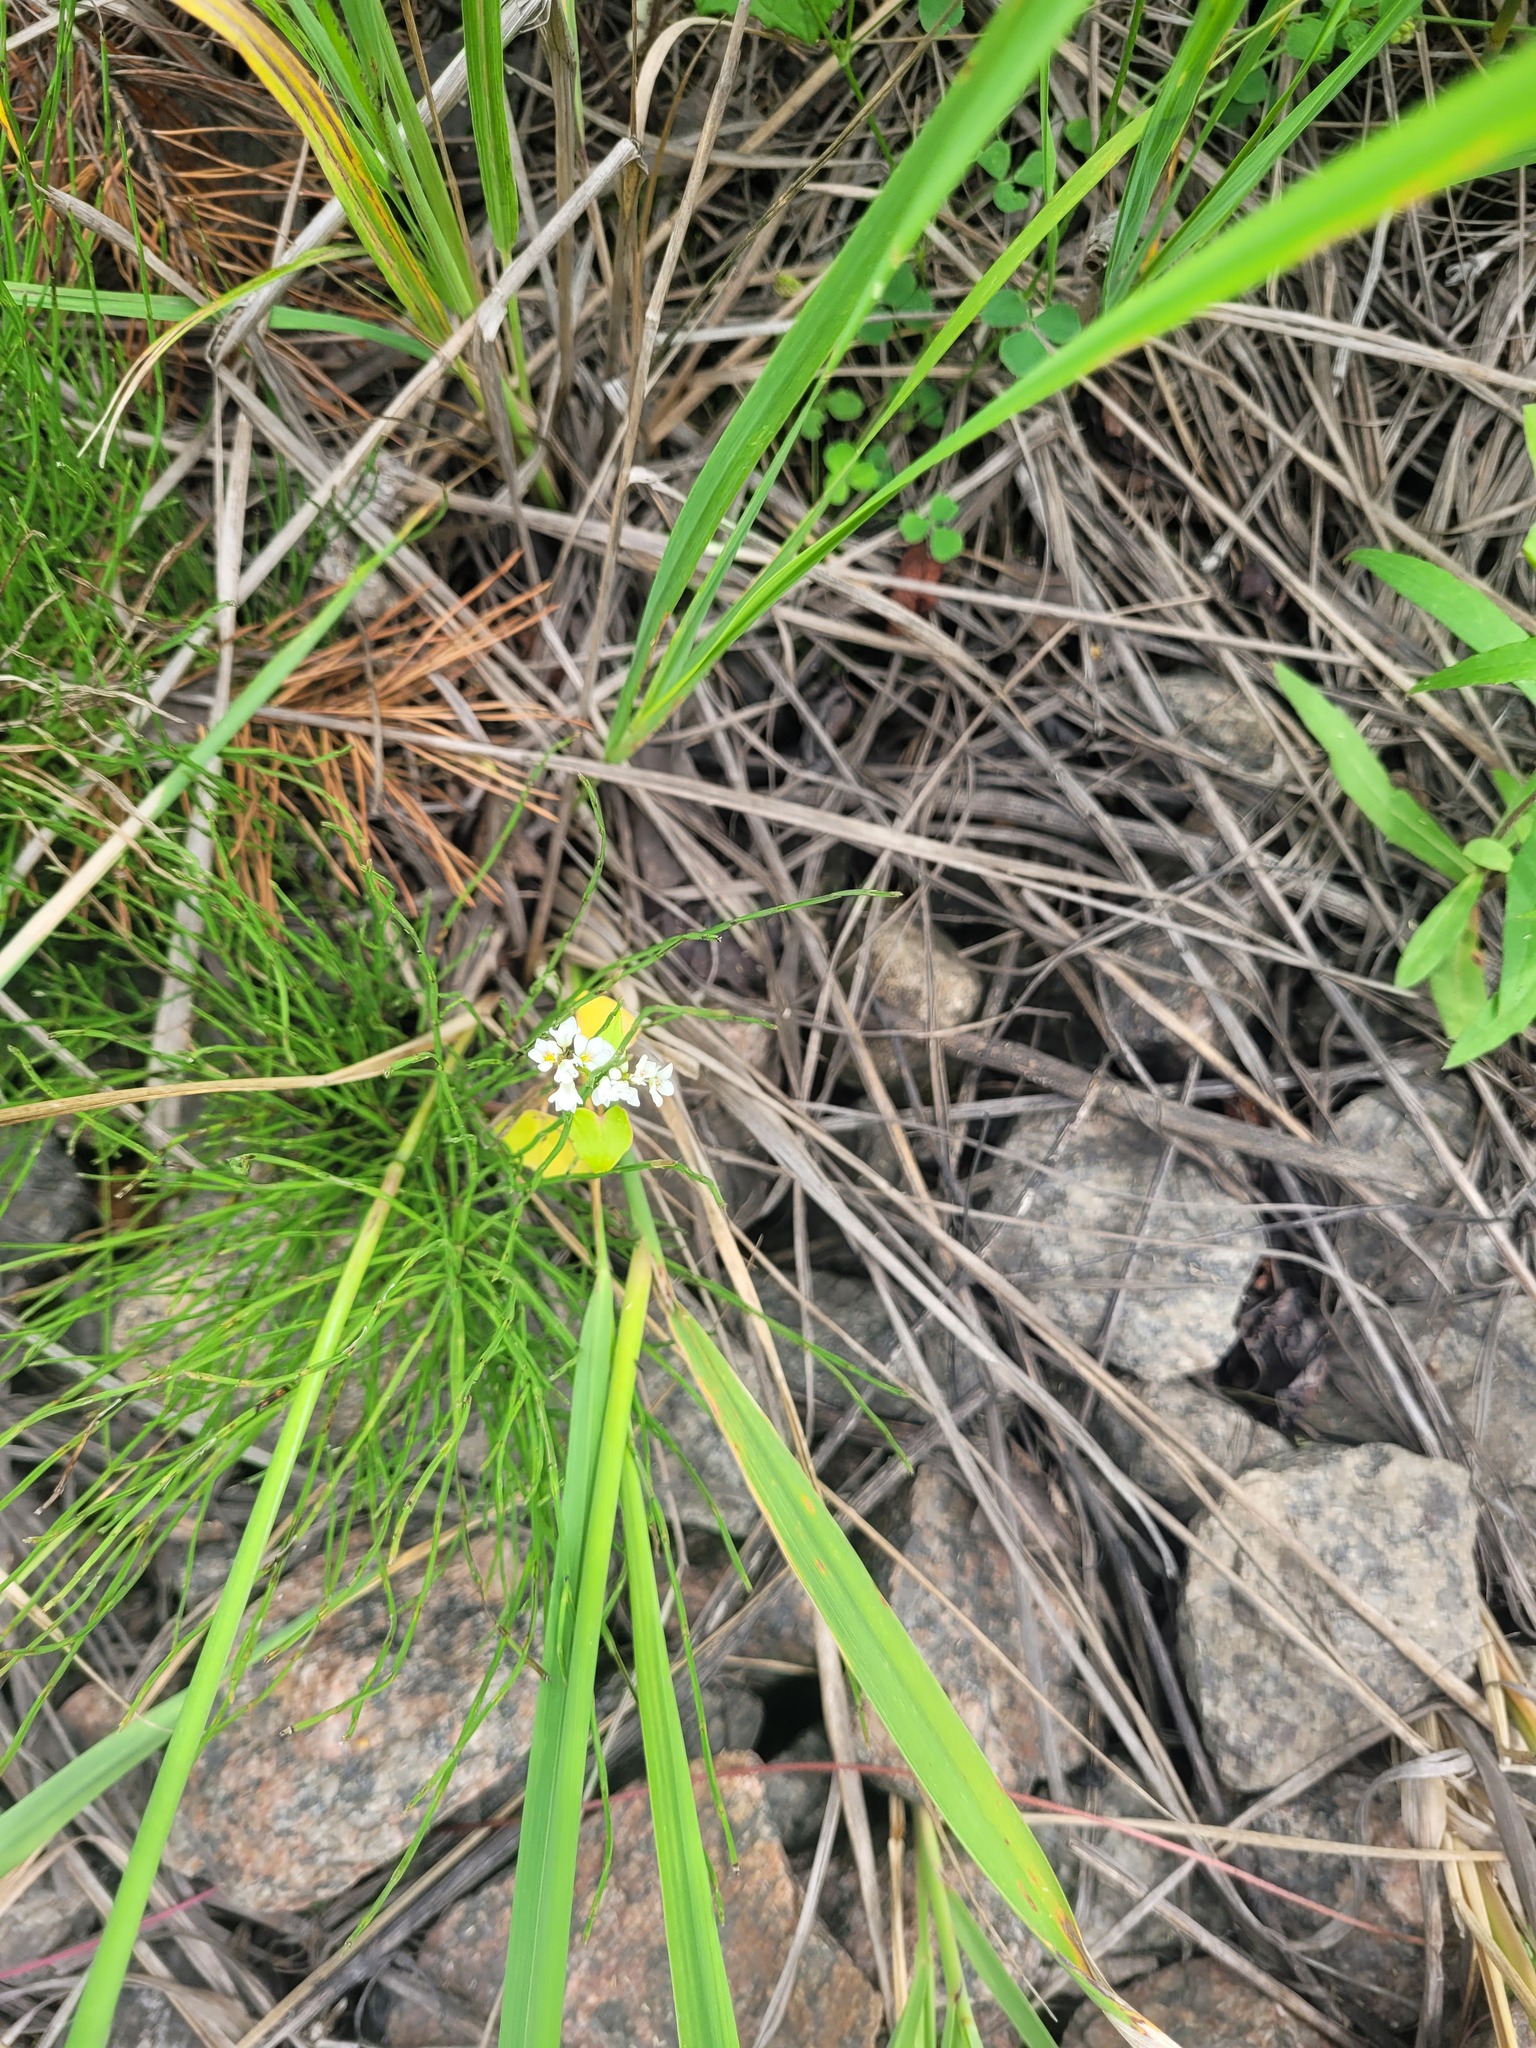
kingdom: Plantae
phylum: Tracheophyta
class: Magnoliopsida
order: Caryophyllales
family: Polygonaceae
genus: Fagopyrum
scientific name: Fagopyrum esculentum
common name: Buckwheat
